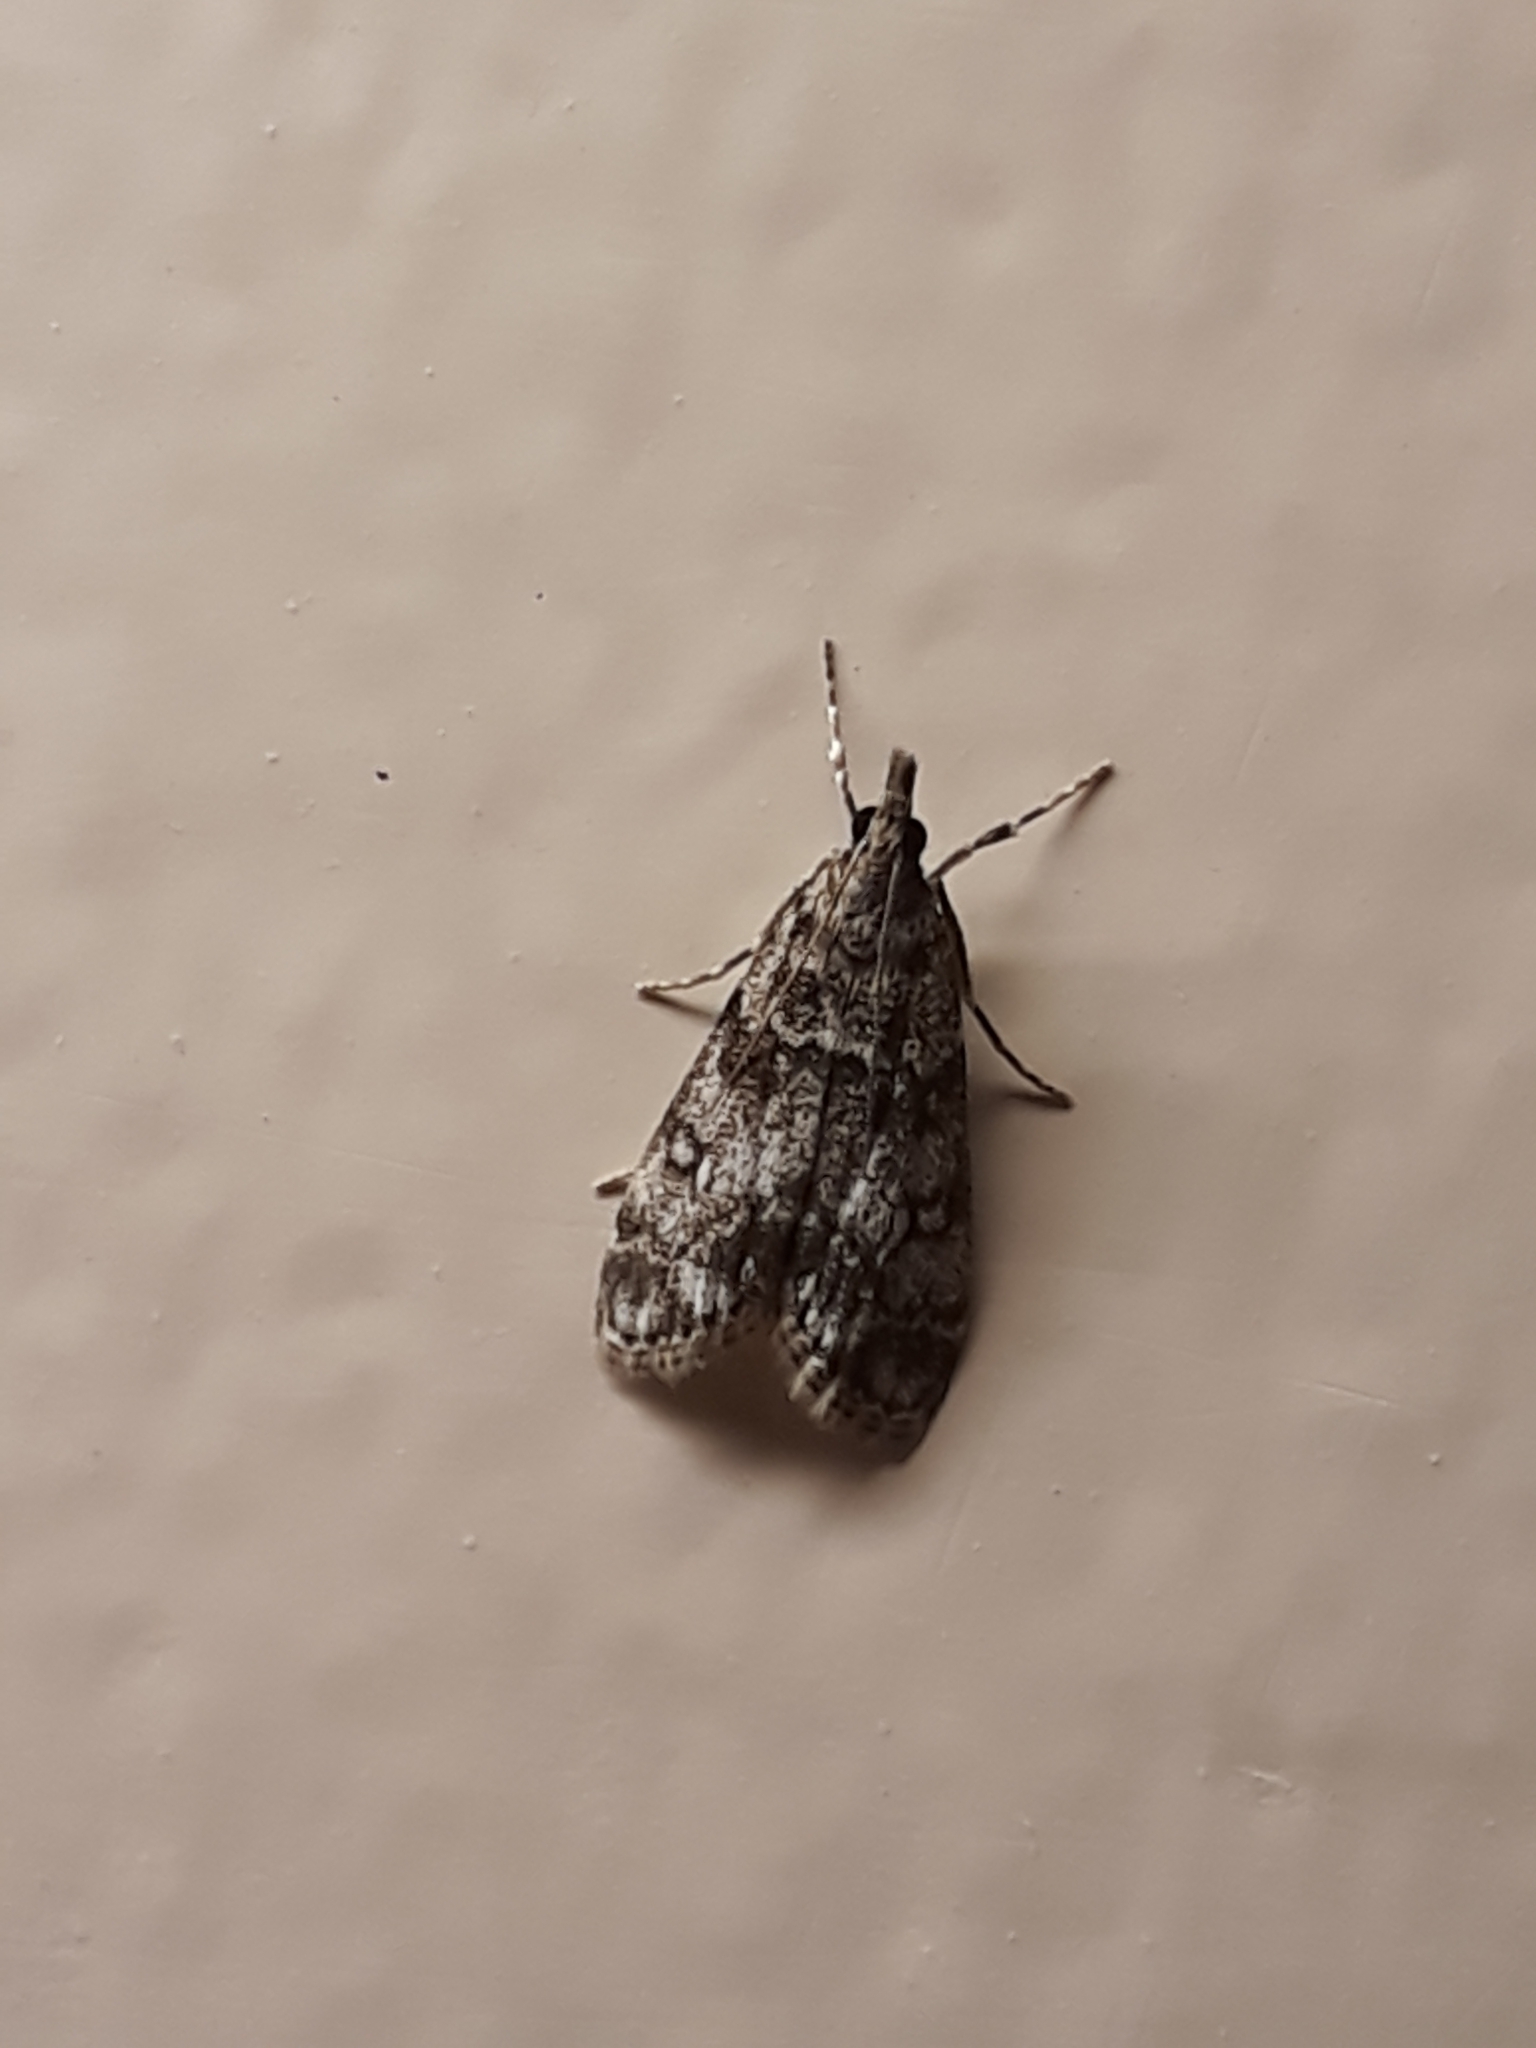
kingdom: Animalia
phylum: Arthropoda
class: Insecta
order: Lepidoptera
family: Crambidae
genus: Eudonia
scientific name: Eudonia lacustrata
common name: Little grey
